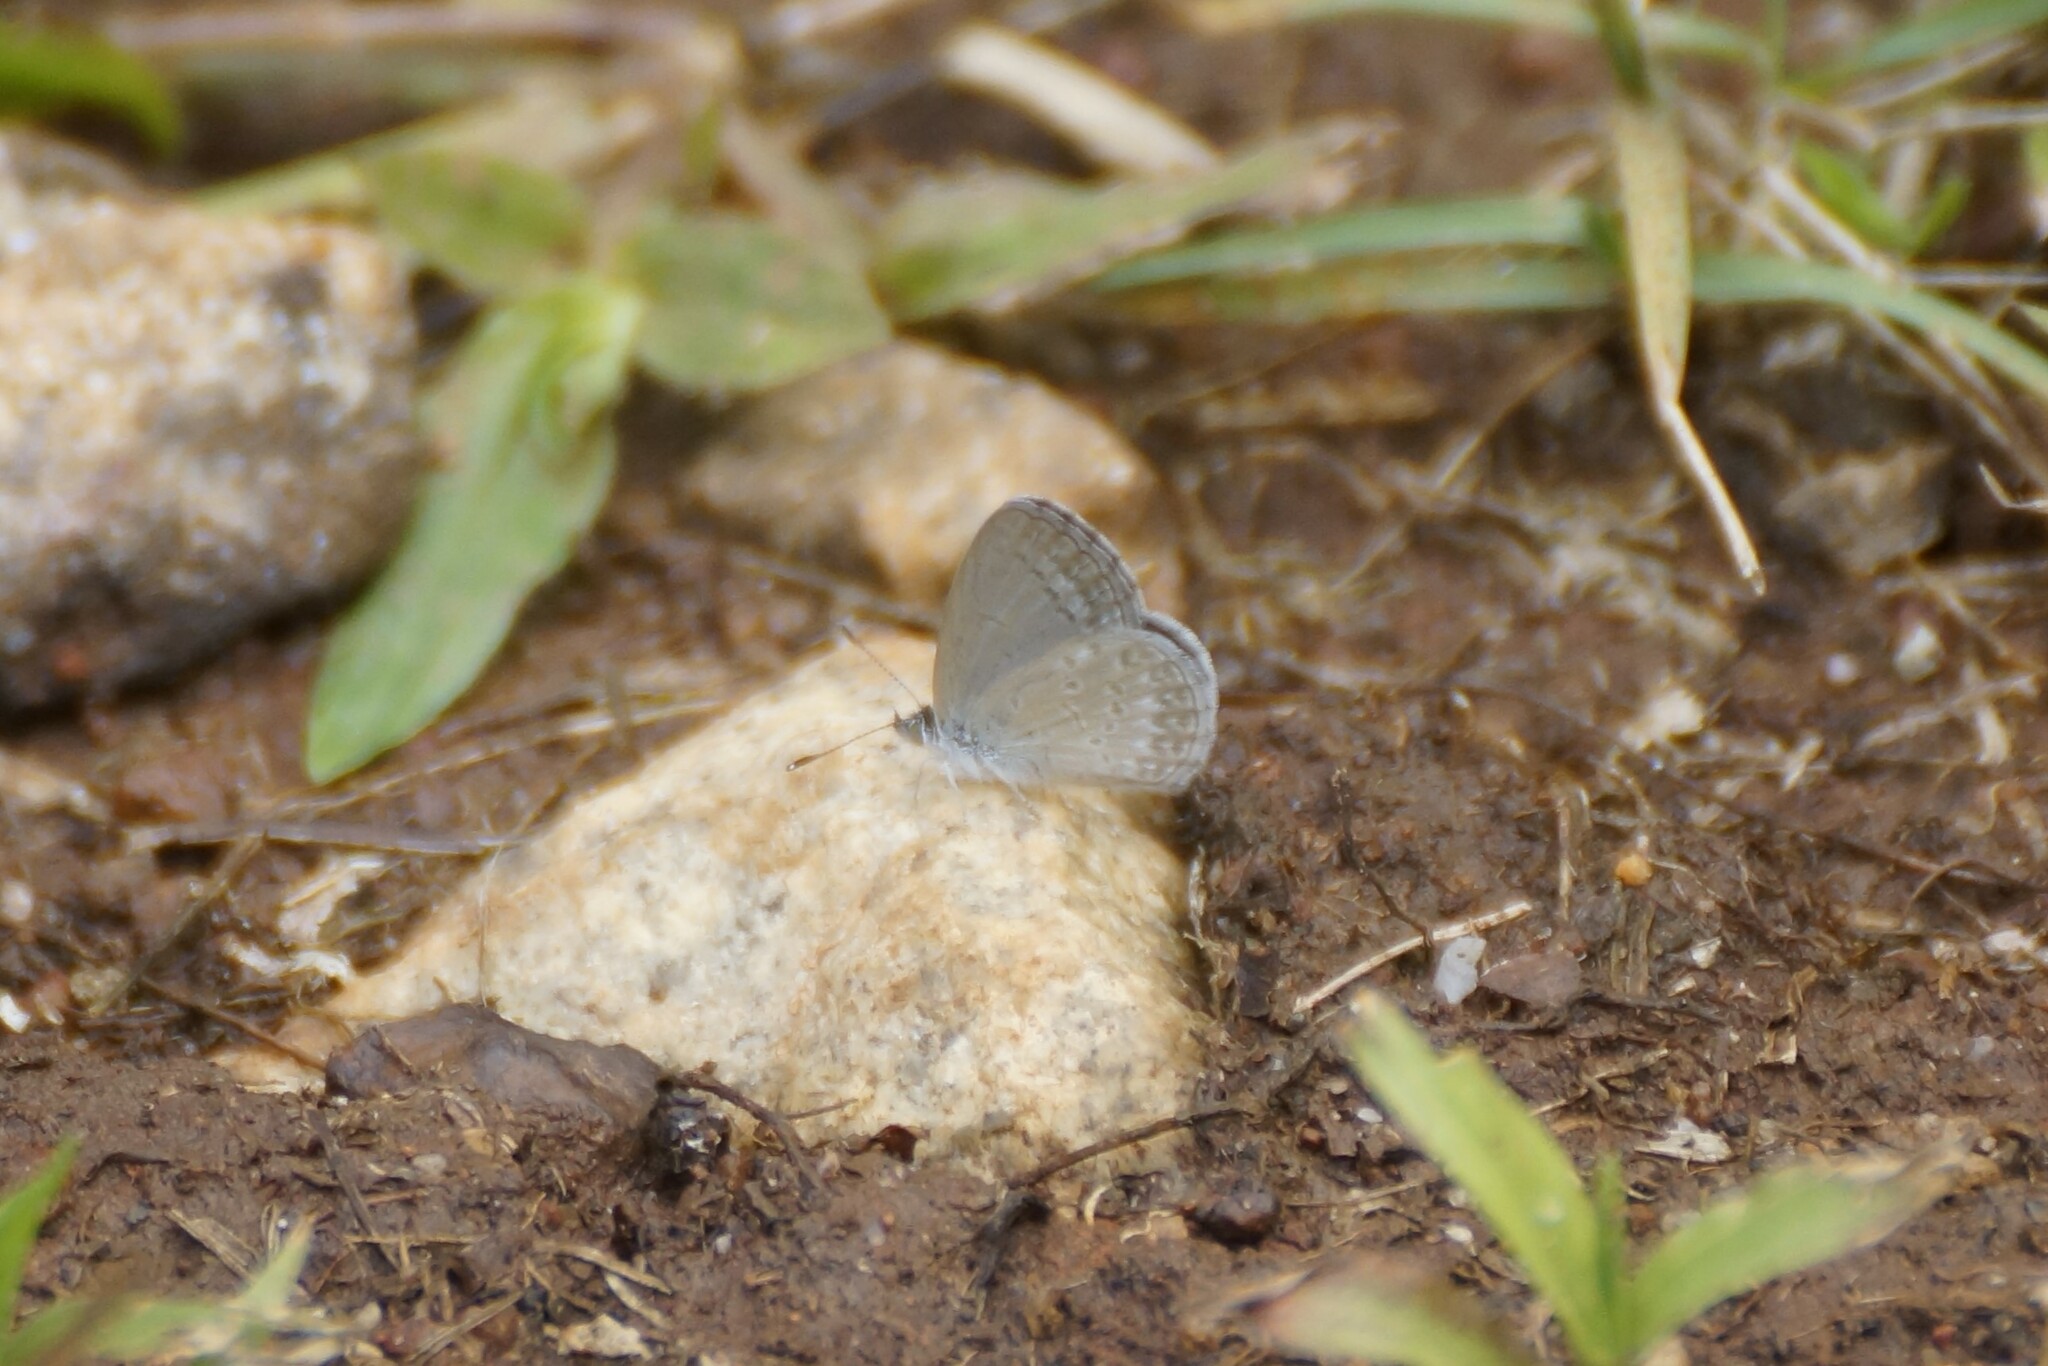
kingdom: Animalia
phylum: Arthropoda
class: Insecta
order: Lepidoptera
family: Lycaenidae
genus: Zizina
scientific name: Zizina otis
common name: Lesser grass blue
